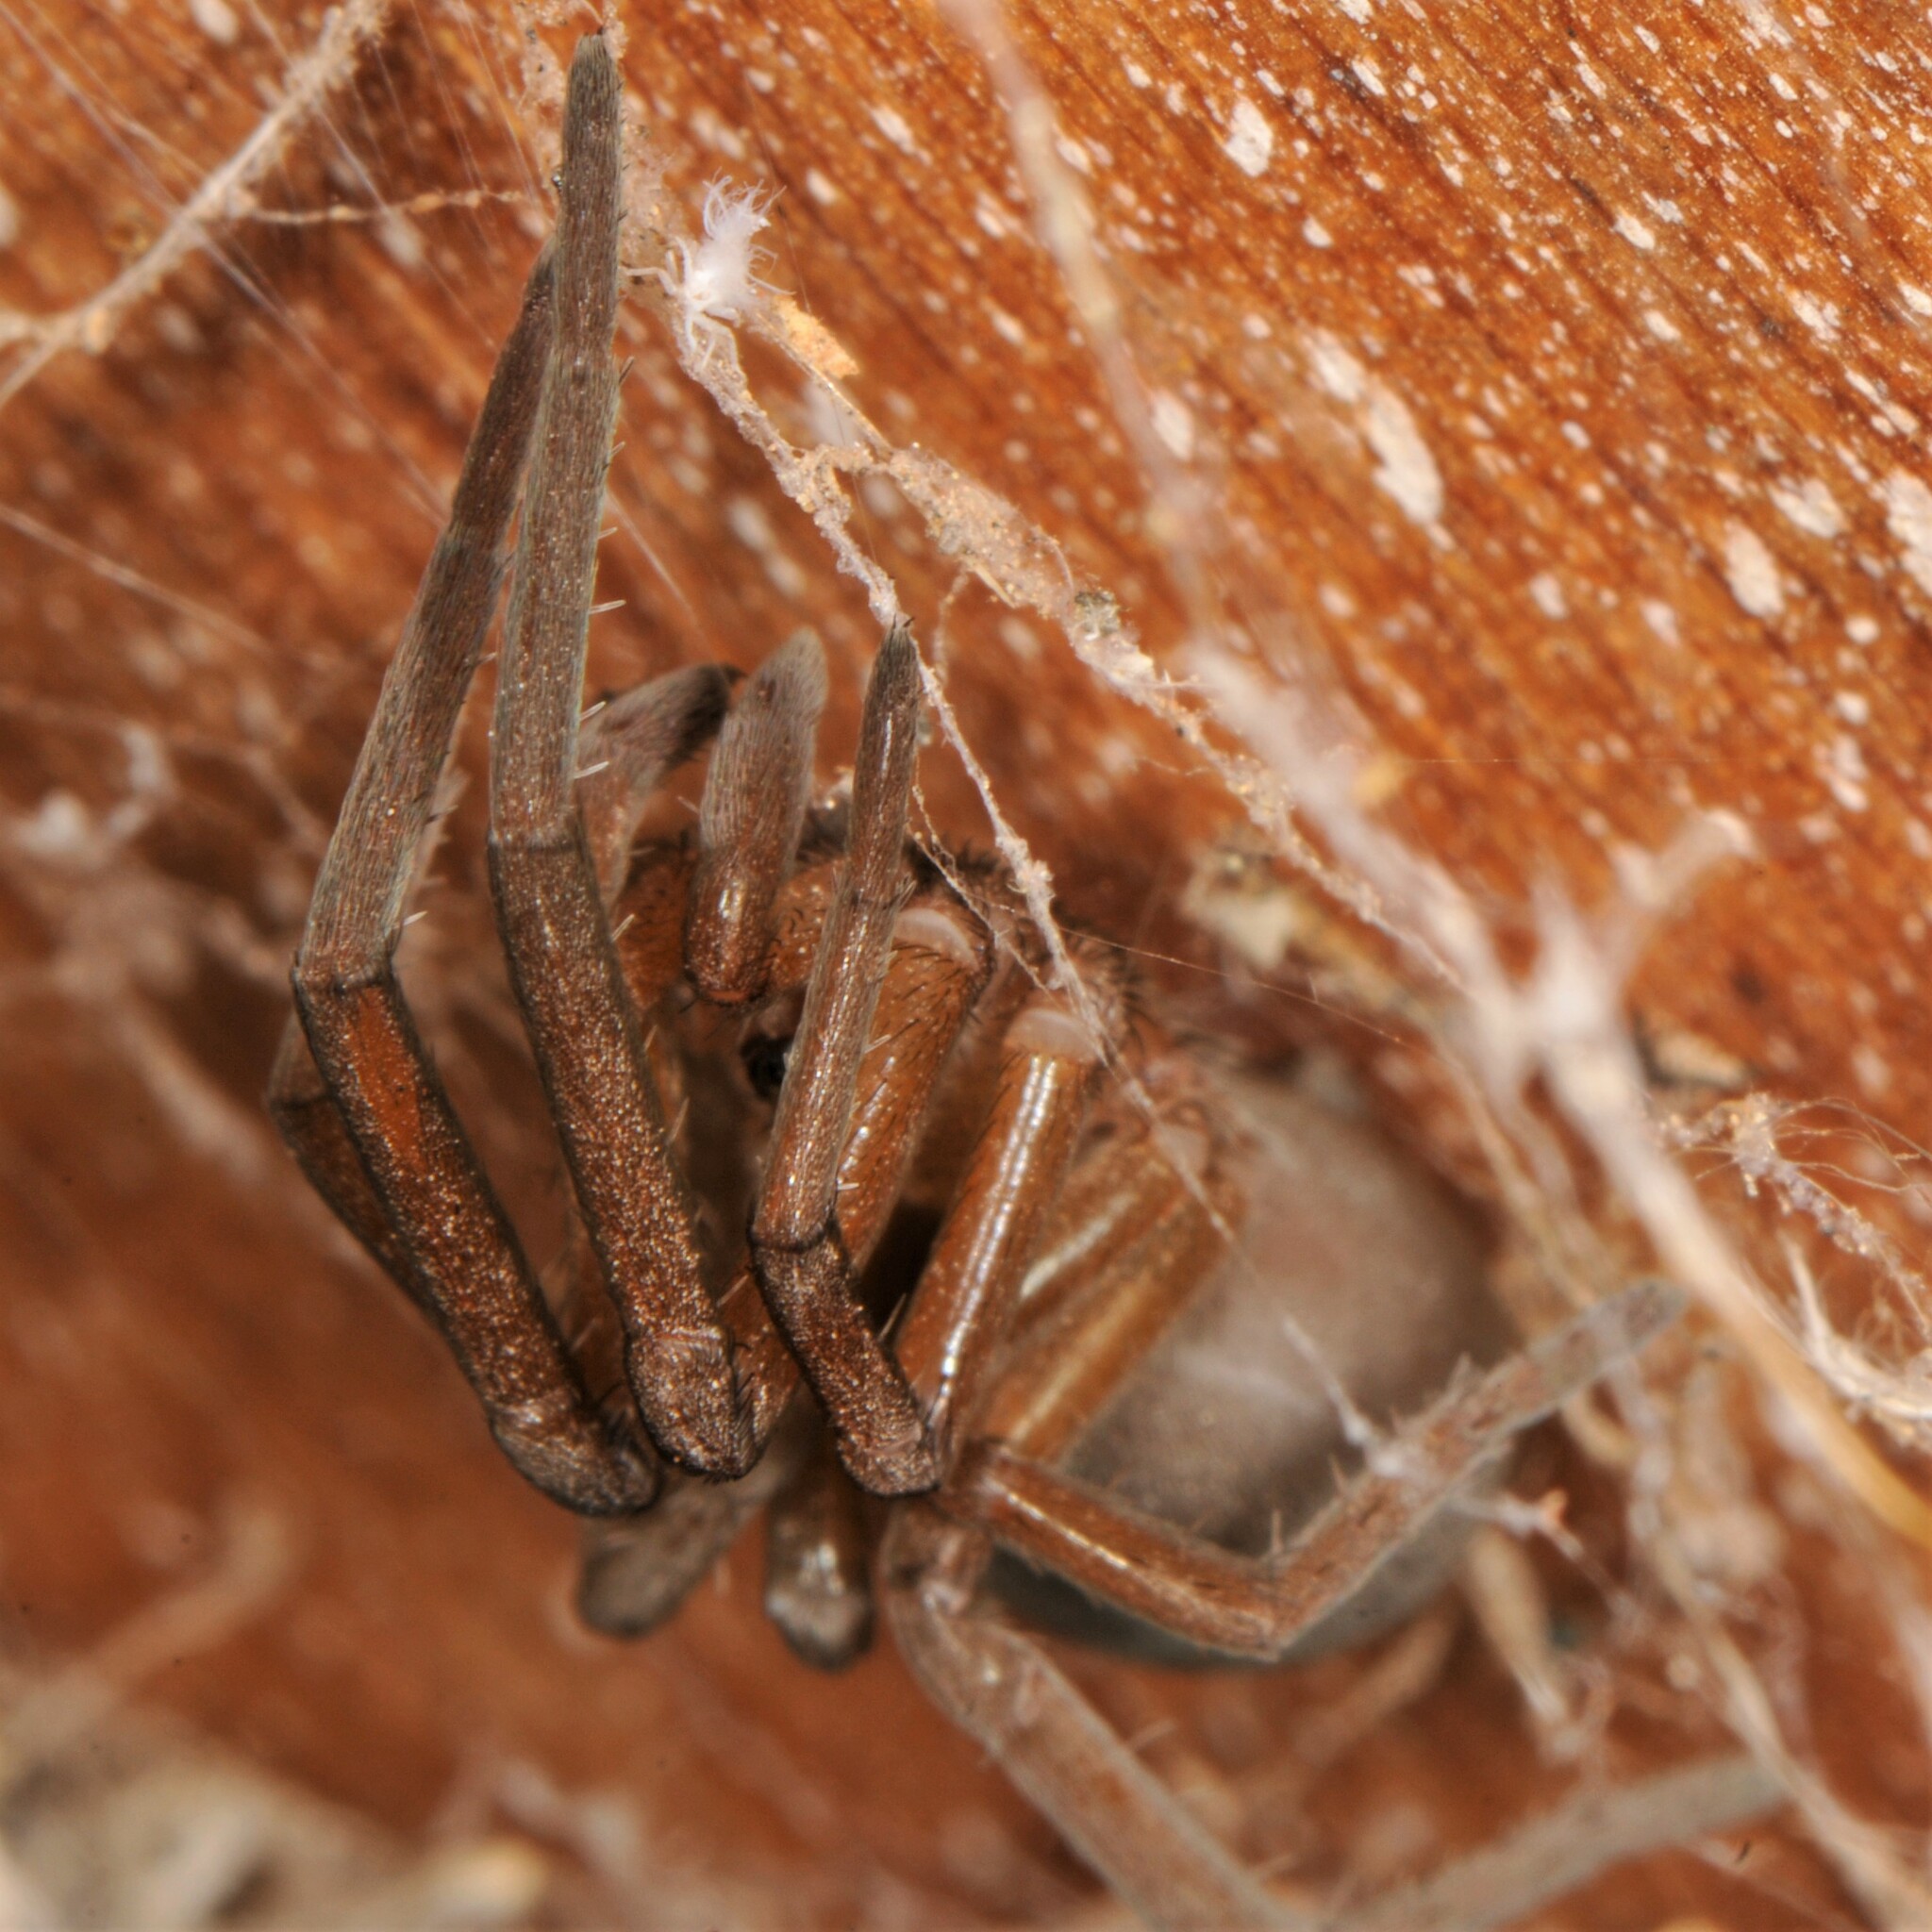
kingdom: Animalia
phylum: Arthropoda
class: Arachnida
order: Araneae
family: Filistatidae
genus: Kukulcania
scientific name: Kukulcania
